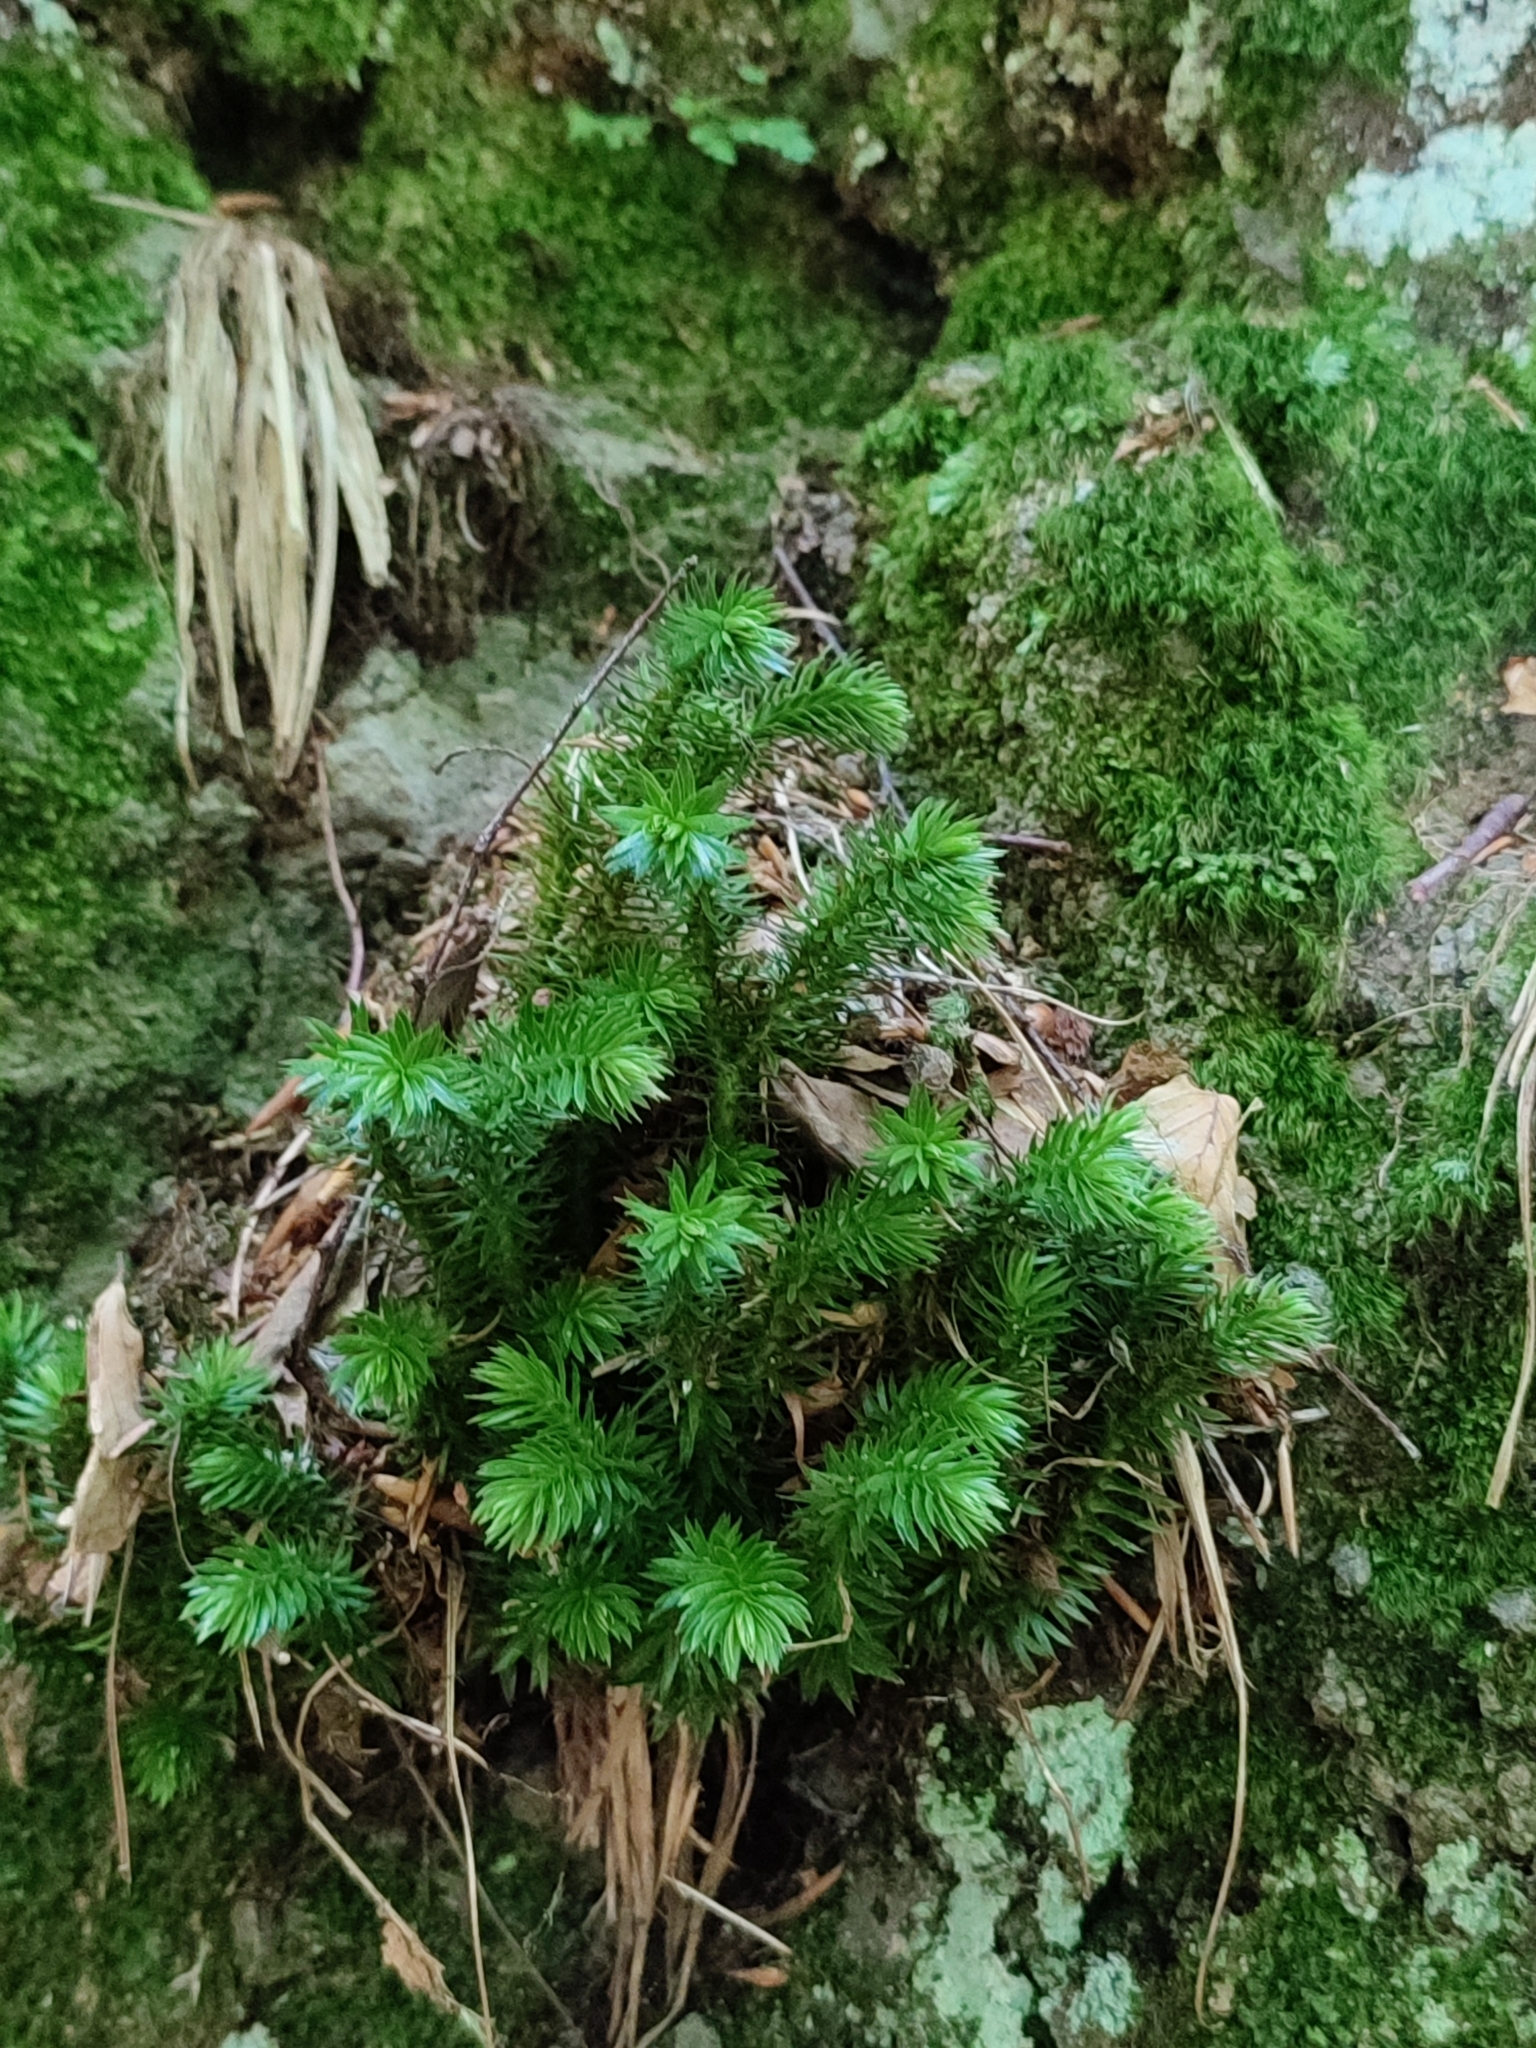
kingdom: Plantae
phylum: Tracheophyta
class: Lycopodiopsida
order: Lycopodiales
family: Lycopodiaceae
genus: Huperzia
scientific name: Huperzia selago
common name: Northern firmoss
